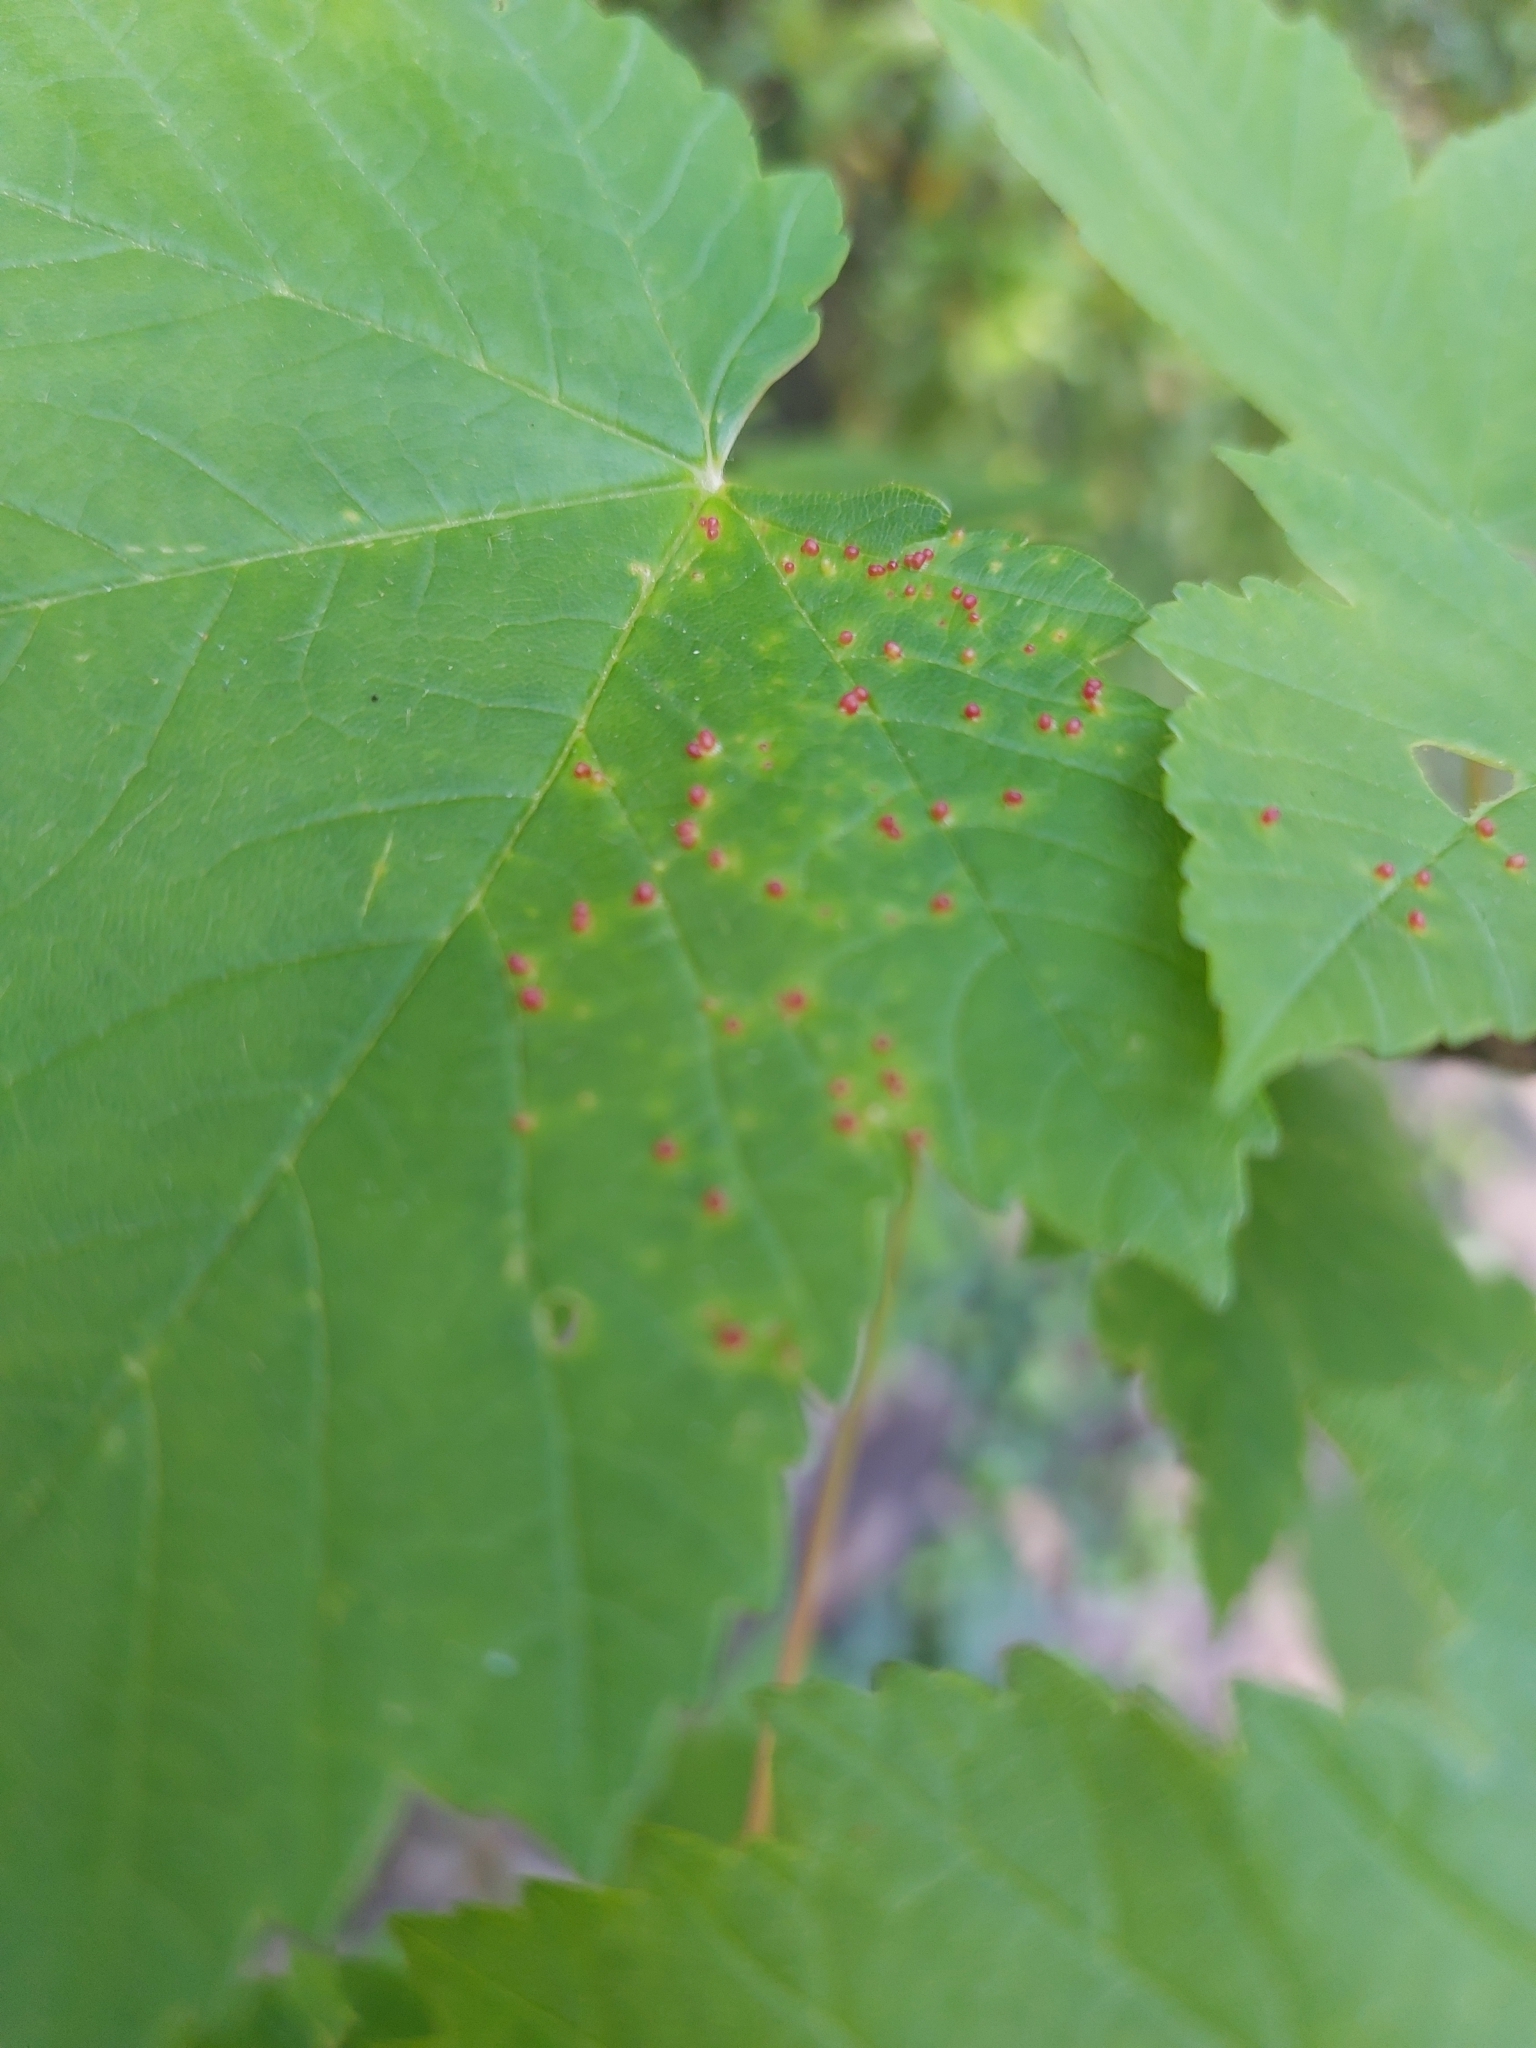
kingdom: Animalia
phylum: Arthropoda
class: Arachnida
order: Trombidiformes
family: Eriophyidae
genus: Aceria
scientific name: Aceria cephaloneus
